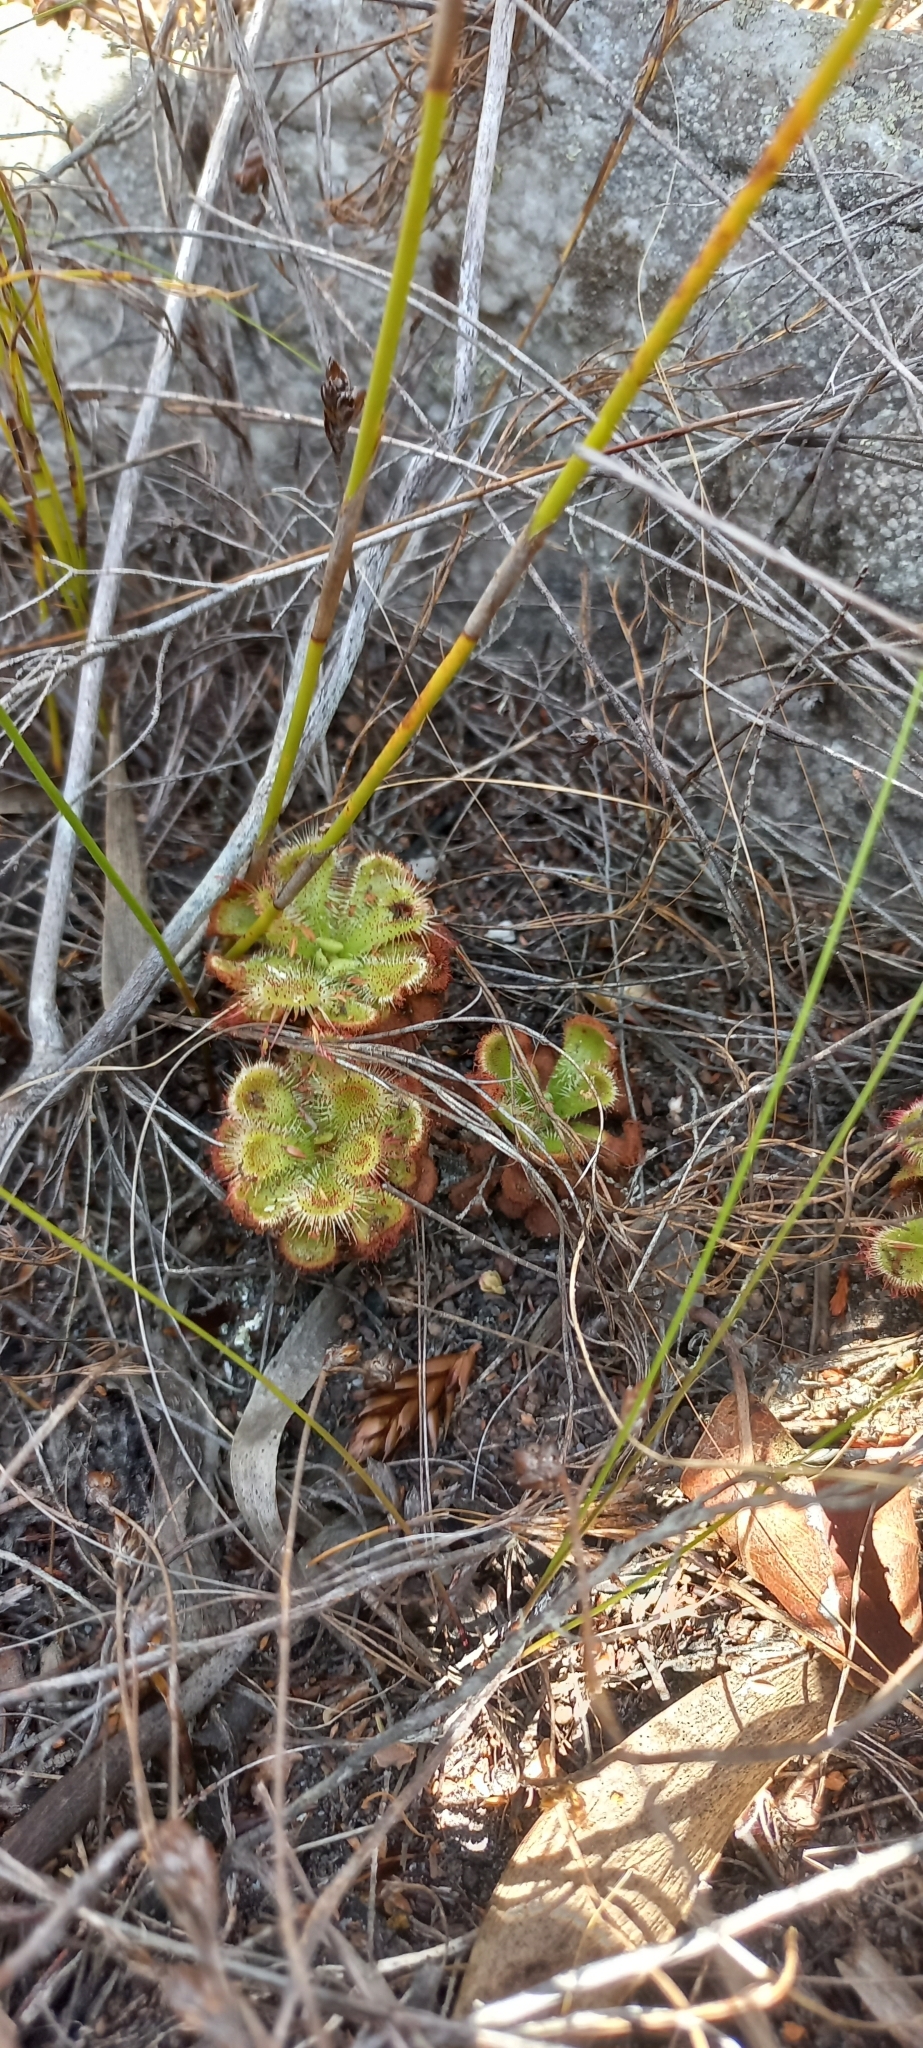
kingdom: Plantae
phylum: Tracheophyta
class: Magnoliopsida
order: Caryophyllales
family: Droseraceae
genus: Drosera
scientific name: Drosera xerophila
